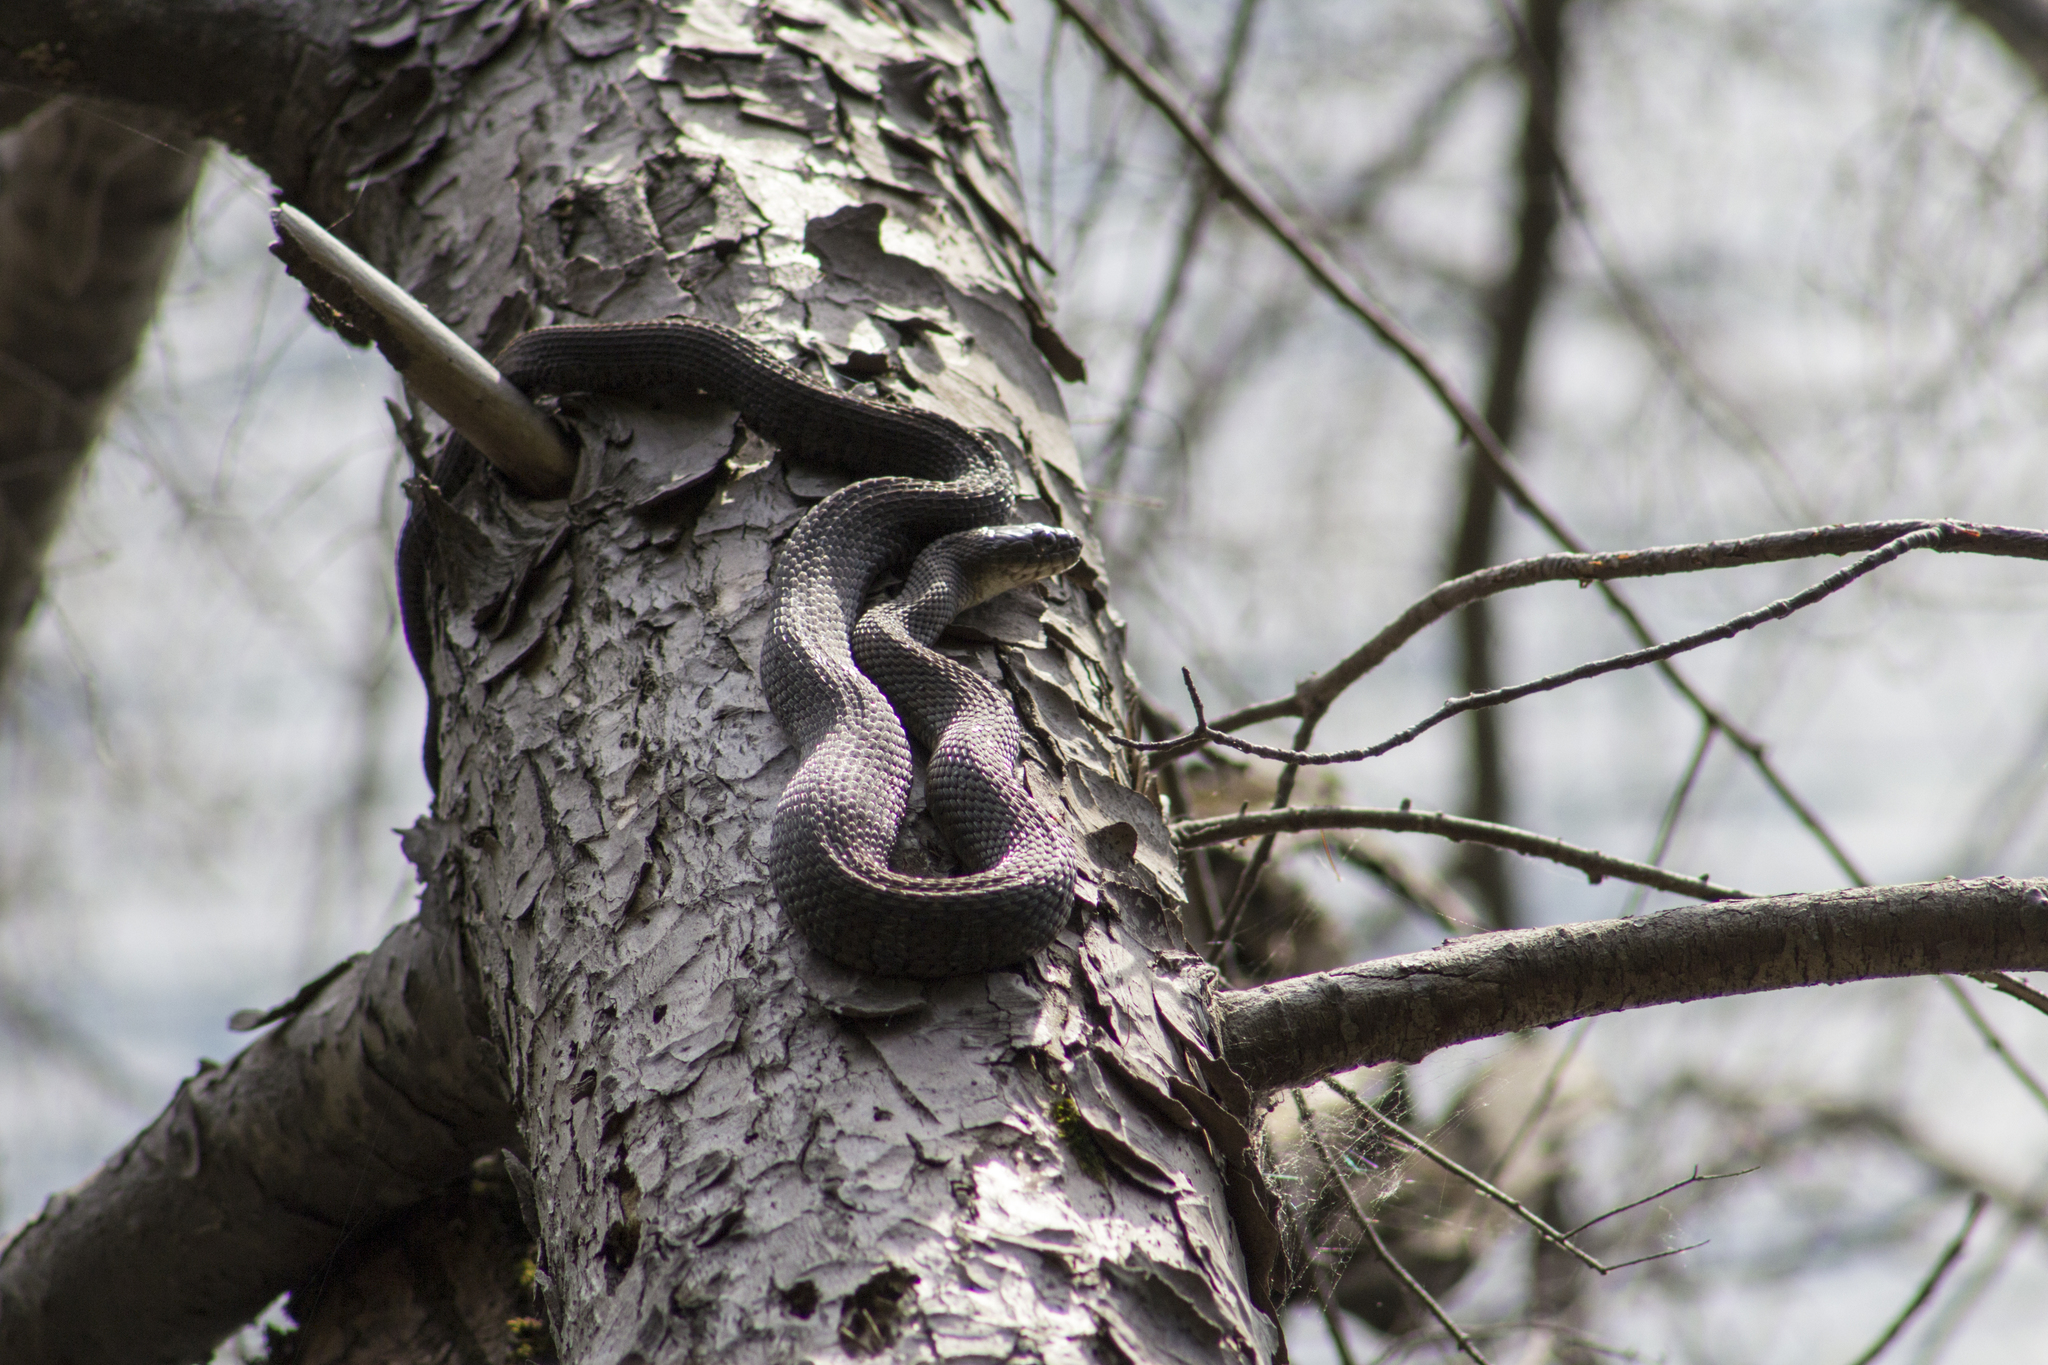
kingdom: Animalia
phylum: Chordata
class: Squamata
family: Colubridae
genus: Nerodia
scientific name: Nerodia sipedon
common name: Northern water snake
